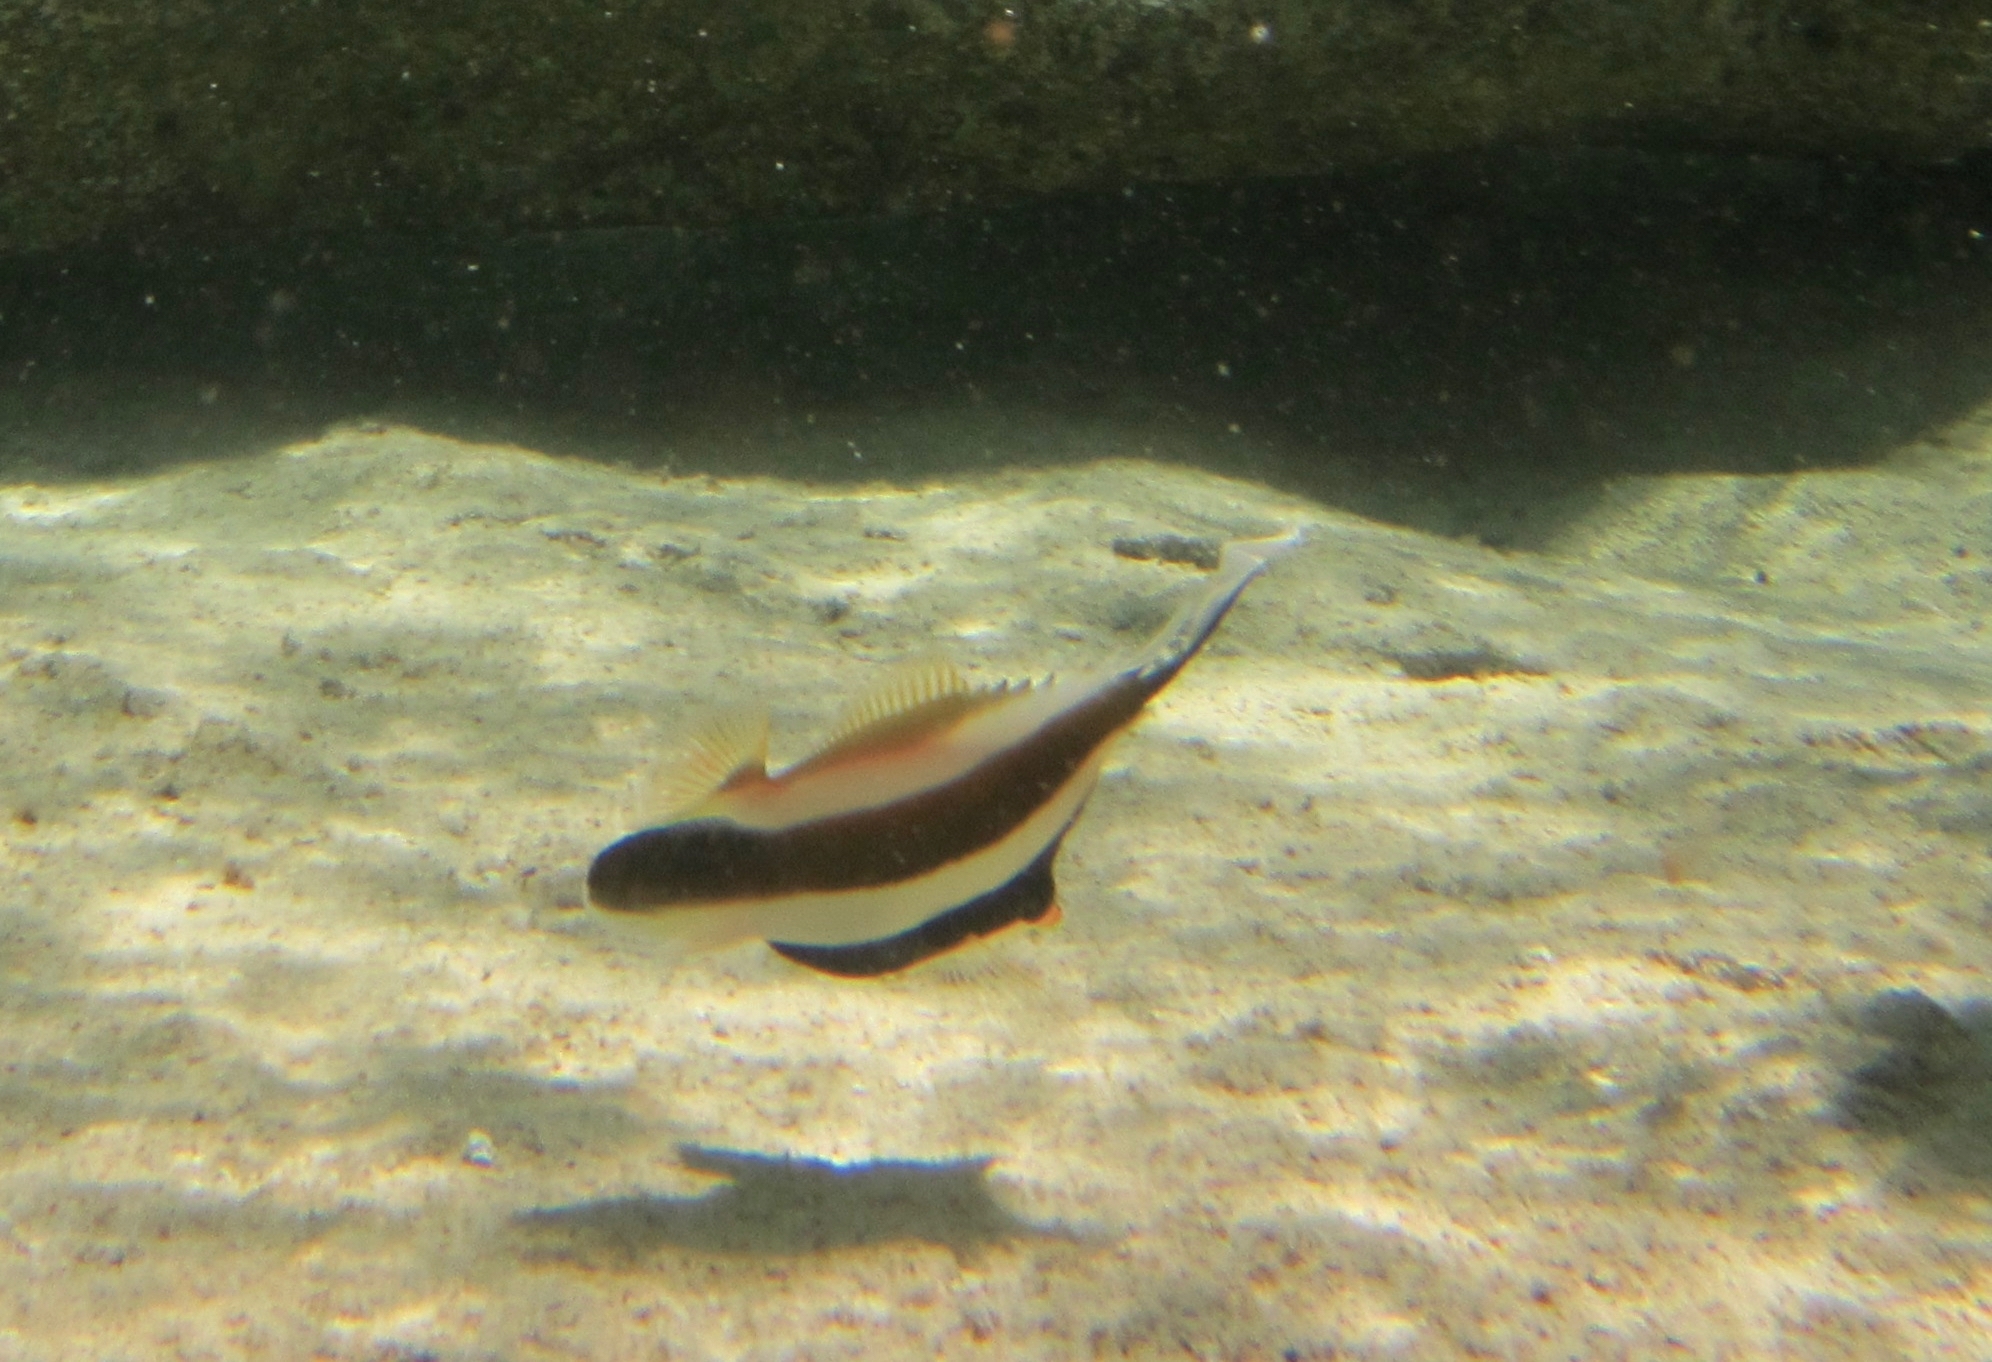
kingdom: Animalia
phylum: Chordata
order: Perciformes
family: Chaetodontidae
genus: Heniochus
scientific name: Heniochus chrysostomus
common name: Horned bannerfish
